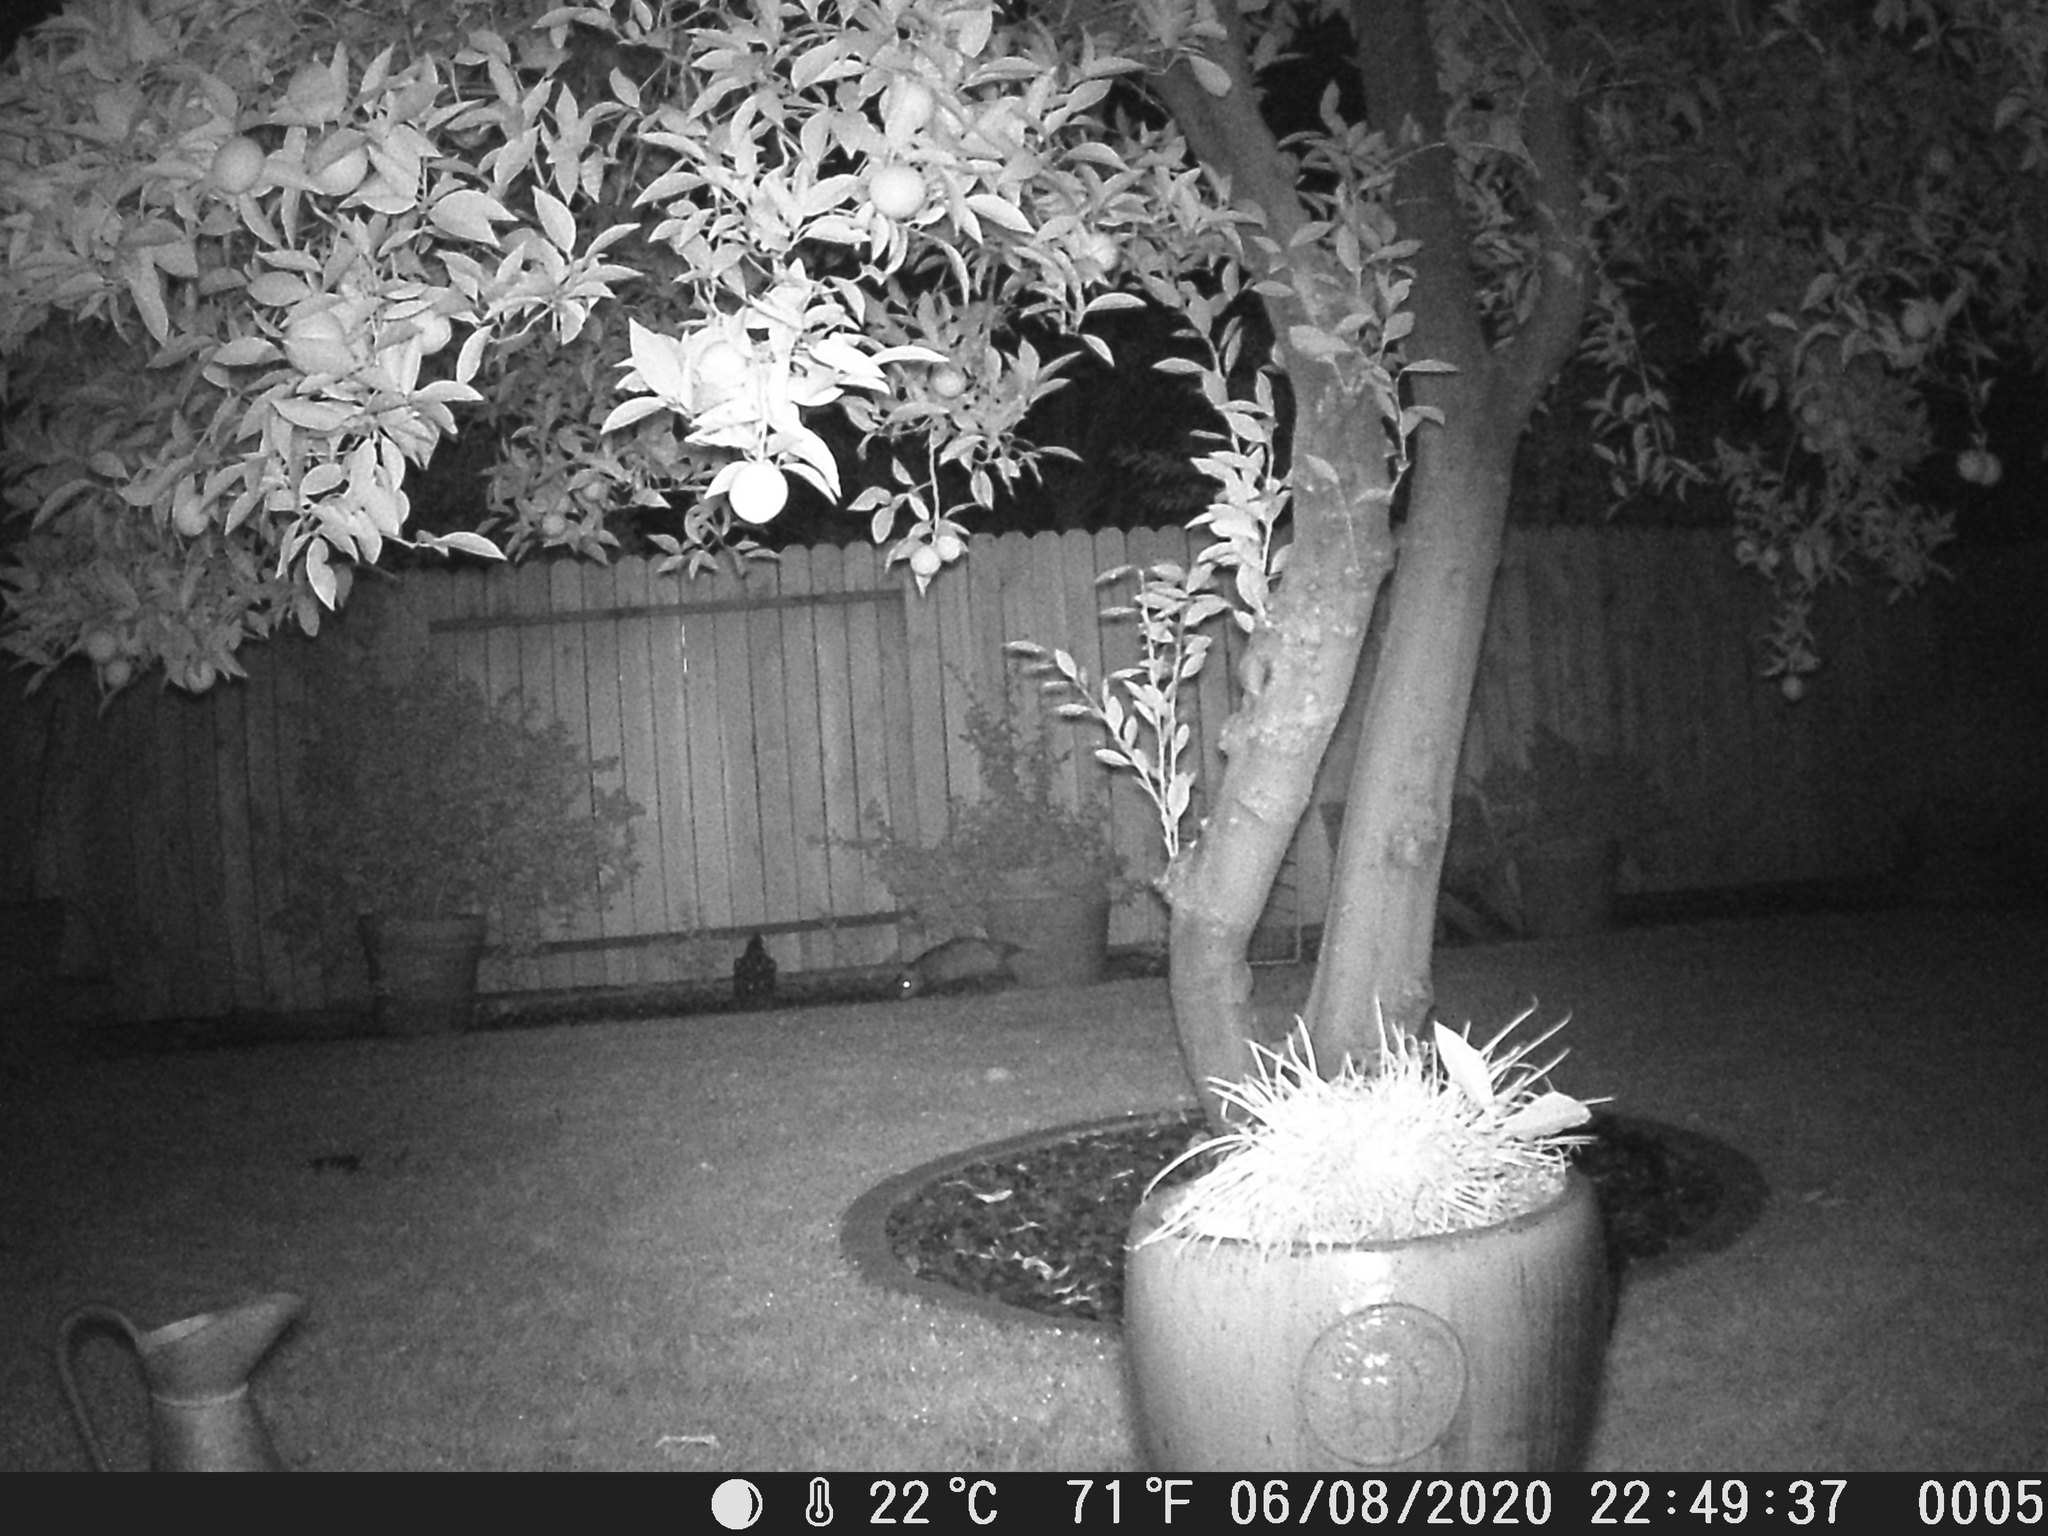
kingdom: Animalia
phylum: Chordata
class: Mammalia
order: Didelphimorphia
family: Didelphidae
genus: Didelphis
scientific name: Didelphis virginiana
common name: Virginia opossum
